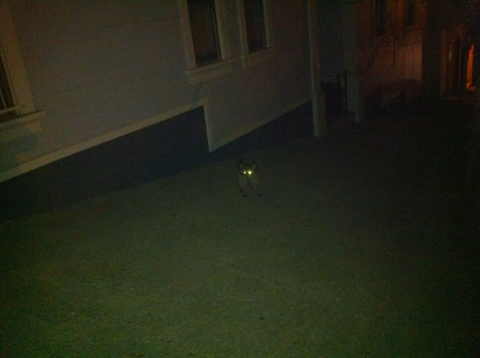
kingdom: Animalia
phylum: Chordata
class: Mammalia
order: Carnivora
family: Procyonidae
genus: Procyon
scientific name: Procyon lotor
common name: Raccoon
